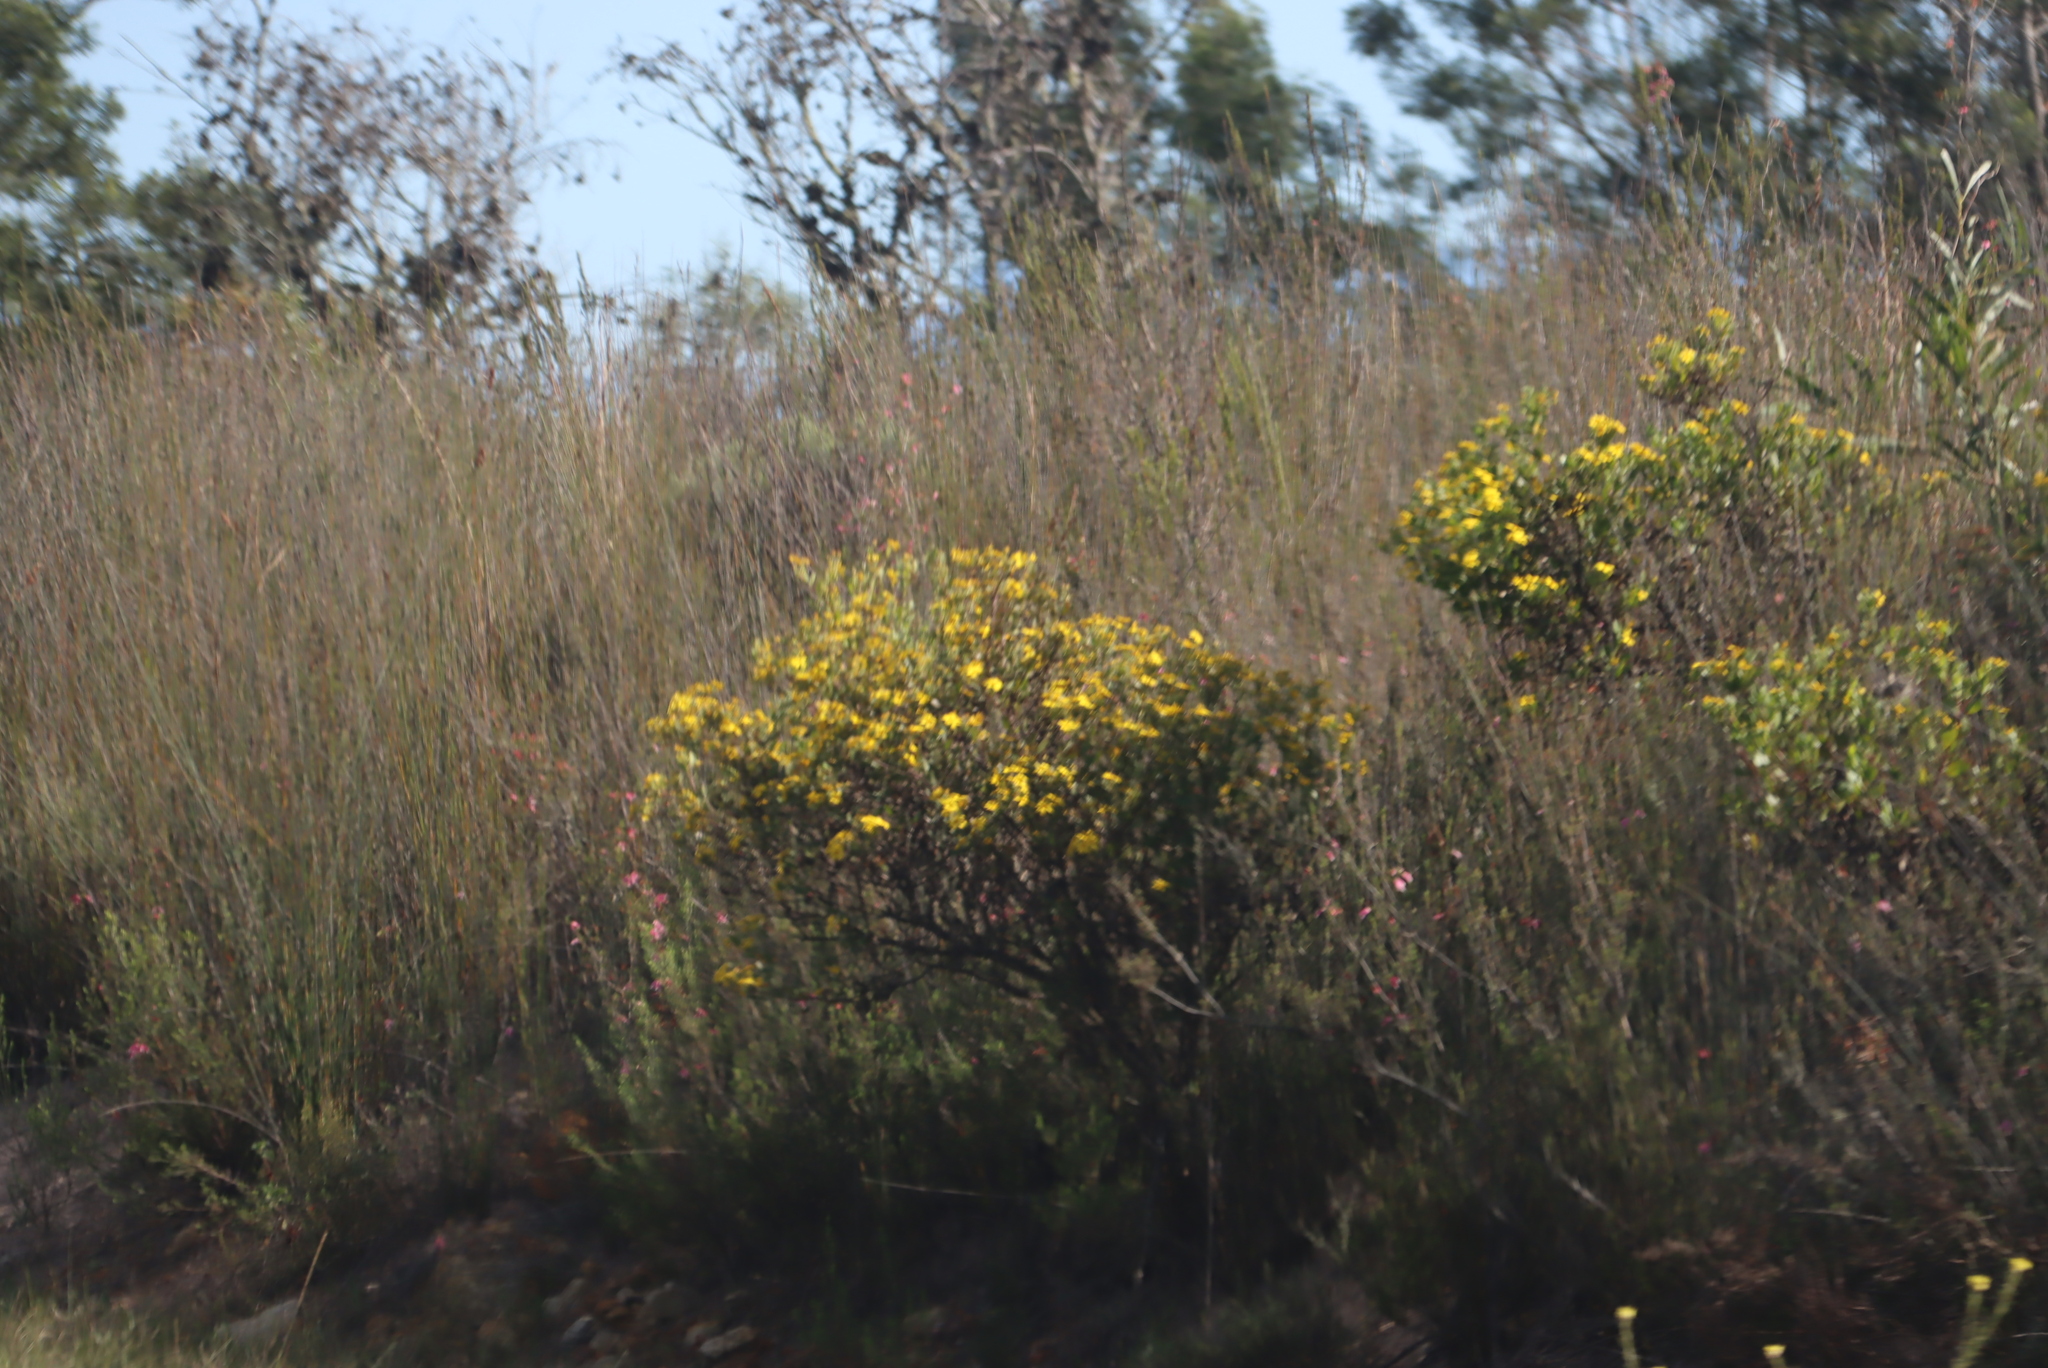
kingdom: Plantae
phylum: Tracheophyta
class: Magnoliopsida
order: Asterales
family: Asteraceae
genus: Osteospermum
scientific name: Osteospermum moniliferum
